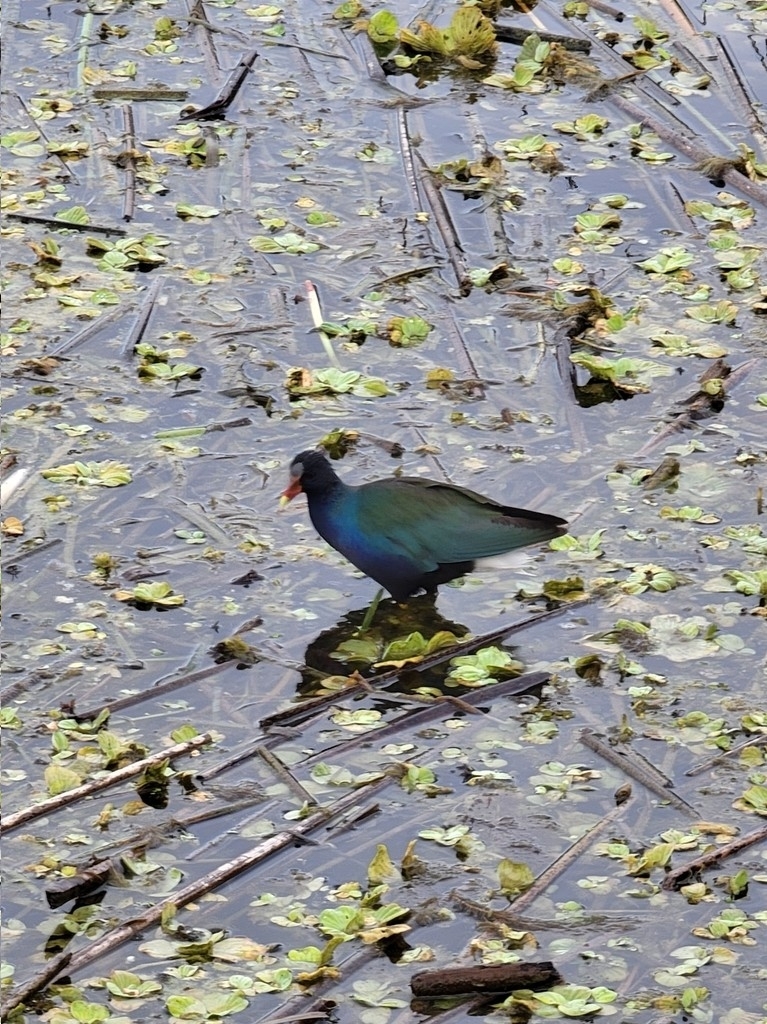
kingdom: Animalia
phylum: Chordata
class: Aves
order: Gruiformes
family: Rallidae
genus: Porphyrio
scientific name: Porphyrio martinica
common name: Purple gallinule
